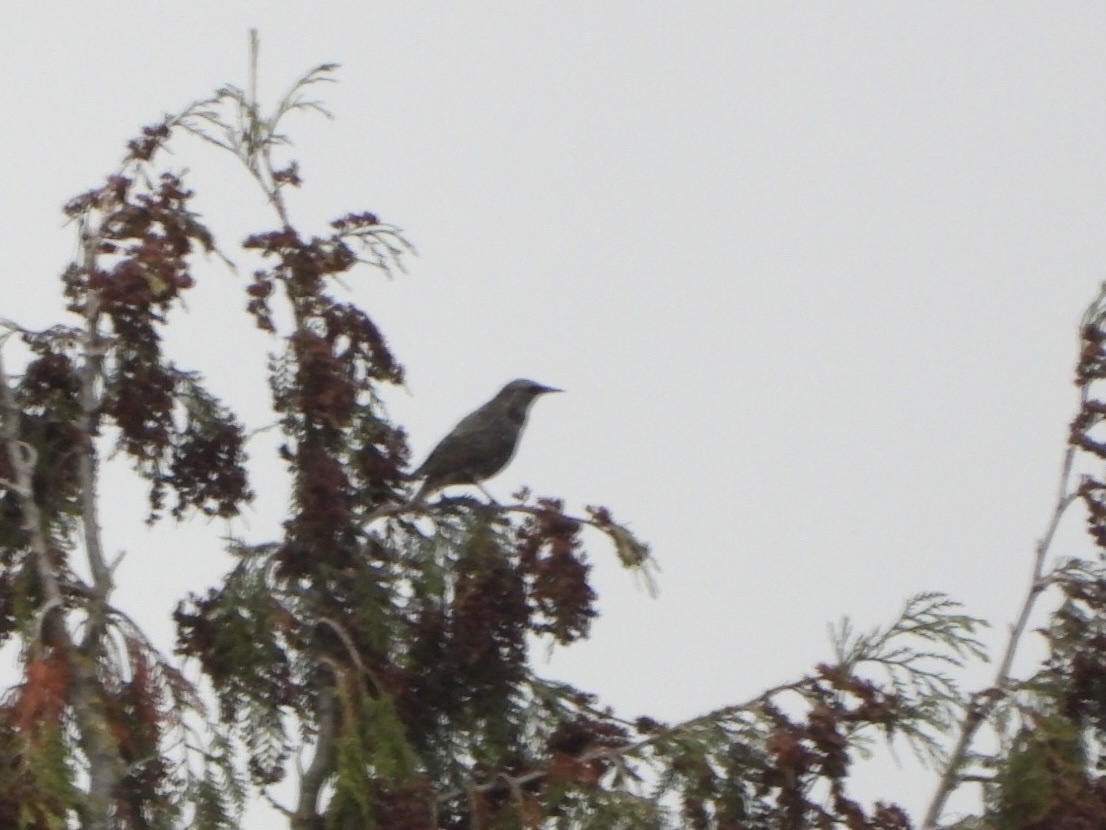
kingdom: Animalia
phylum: Chordata
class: Aves
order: Passeriformes
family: Sturnidae
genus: Sturnus
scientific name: Sturnus vulgaris
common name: Common starling
